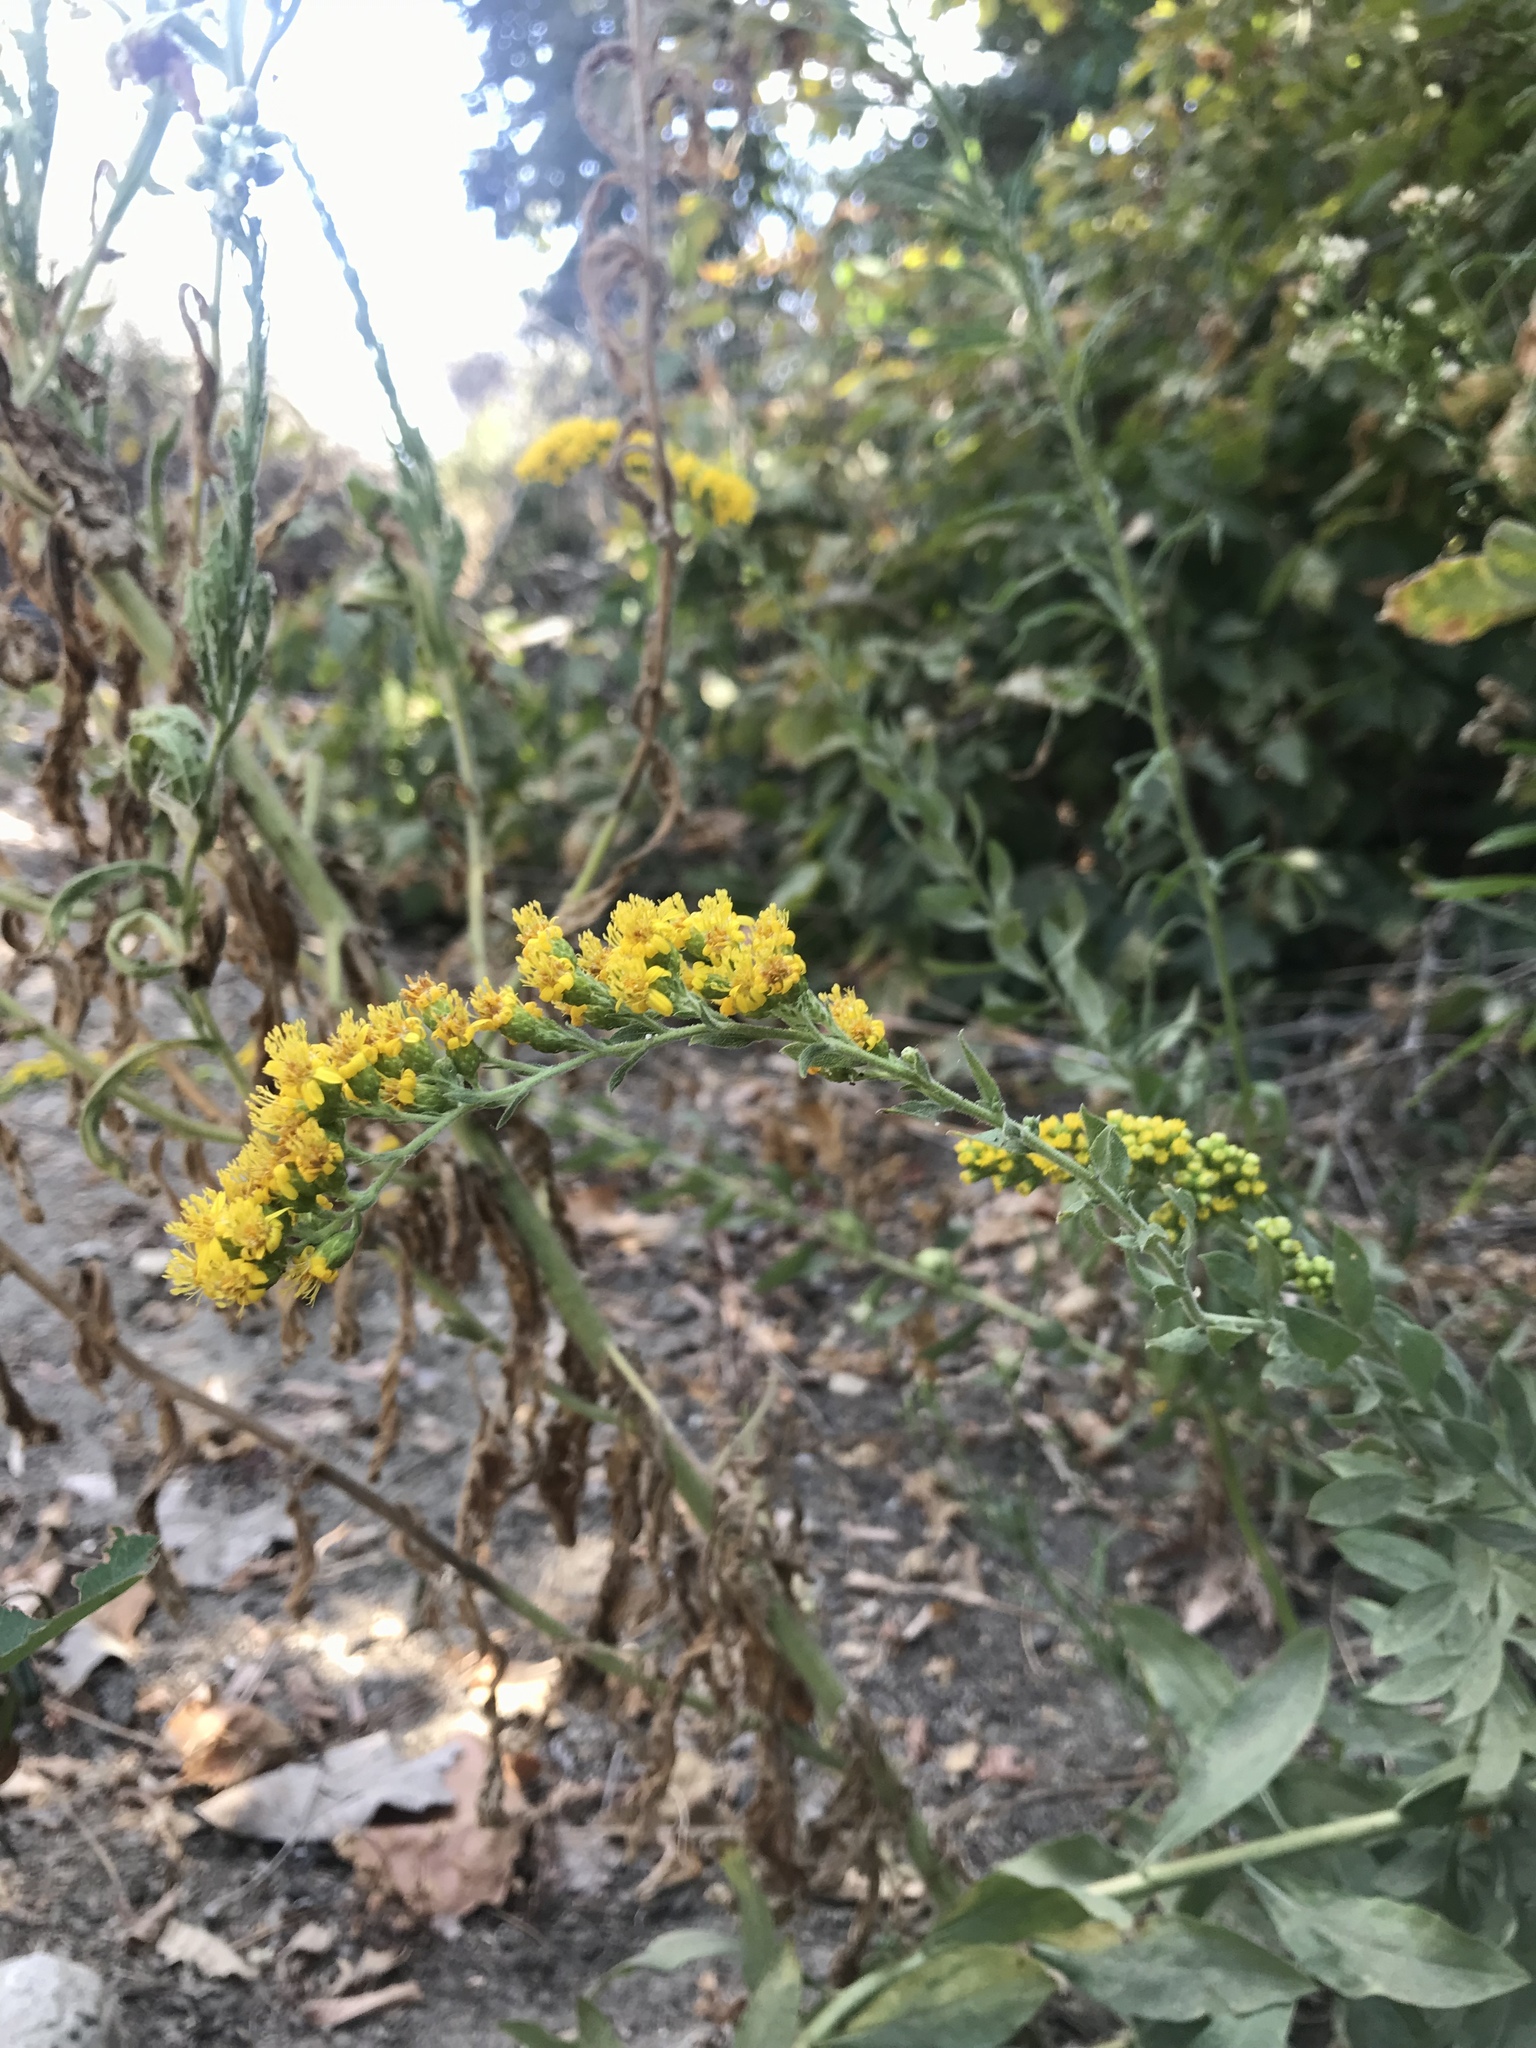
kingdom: Plantae
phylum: Tracheophyta
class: Magnoliopsida
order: Asterales
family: Asteraceae
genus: Solidago
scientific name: Solidago californica
